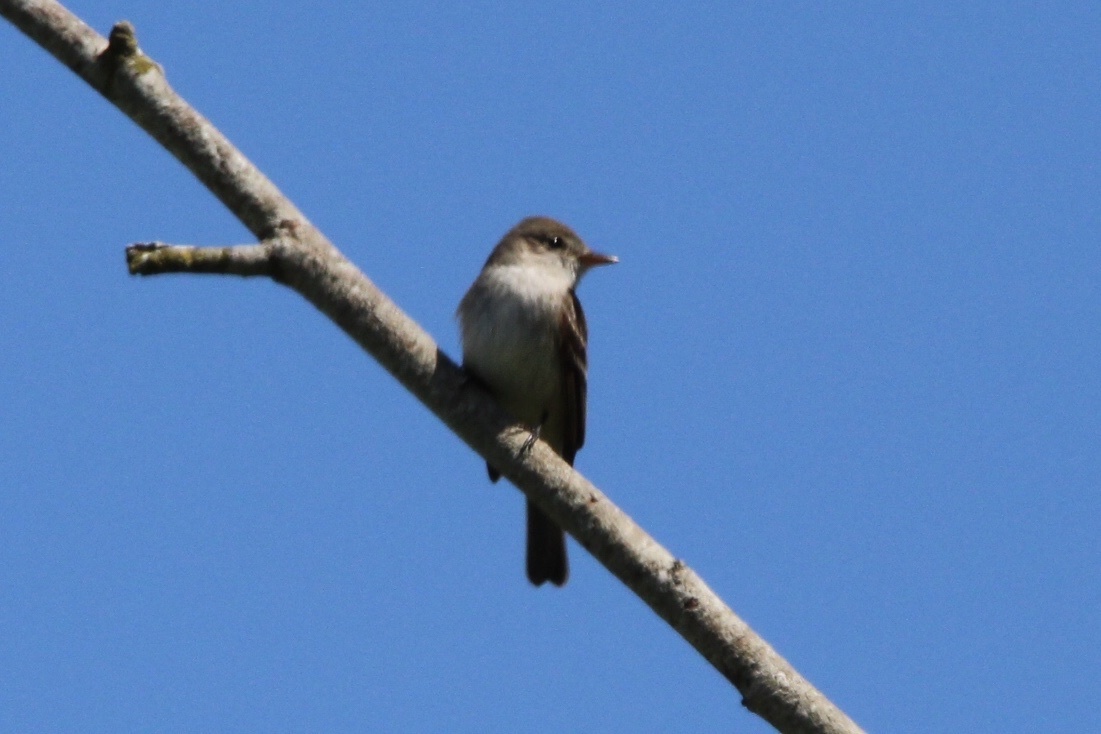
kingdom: Animalia
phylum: Chordata
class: Aves
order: Passeriformes
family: Tyrannidae
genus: Empidonax
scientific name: Empidonax traillii
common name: Willow flycatcher
